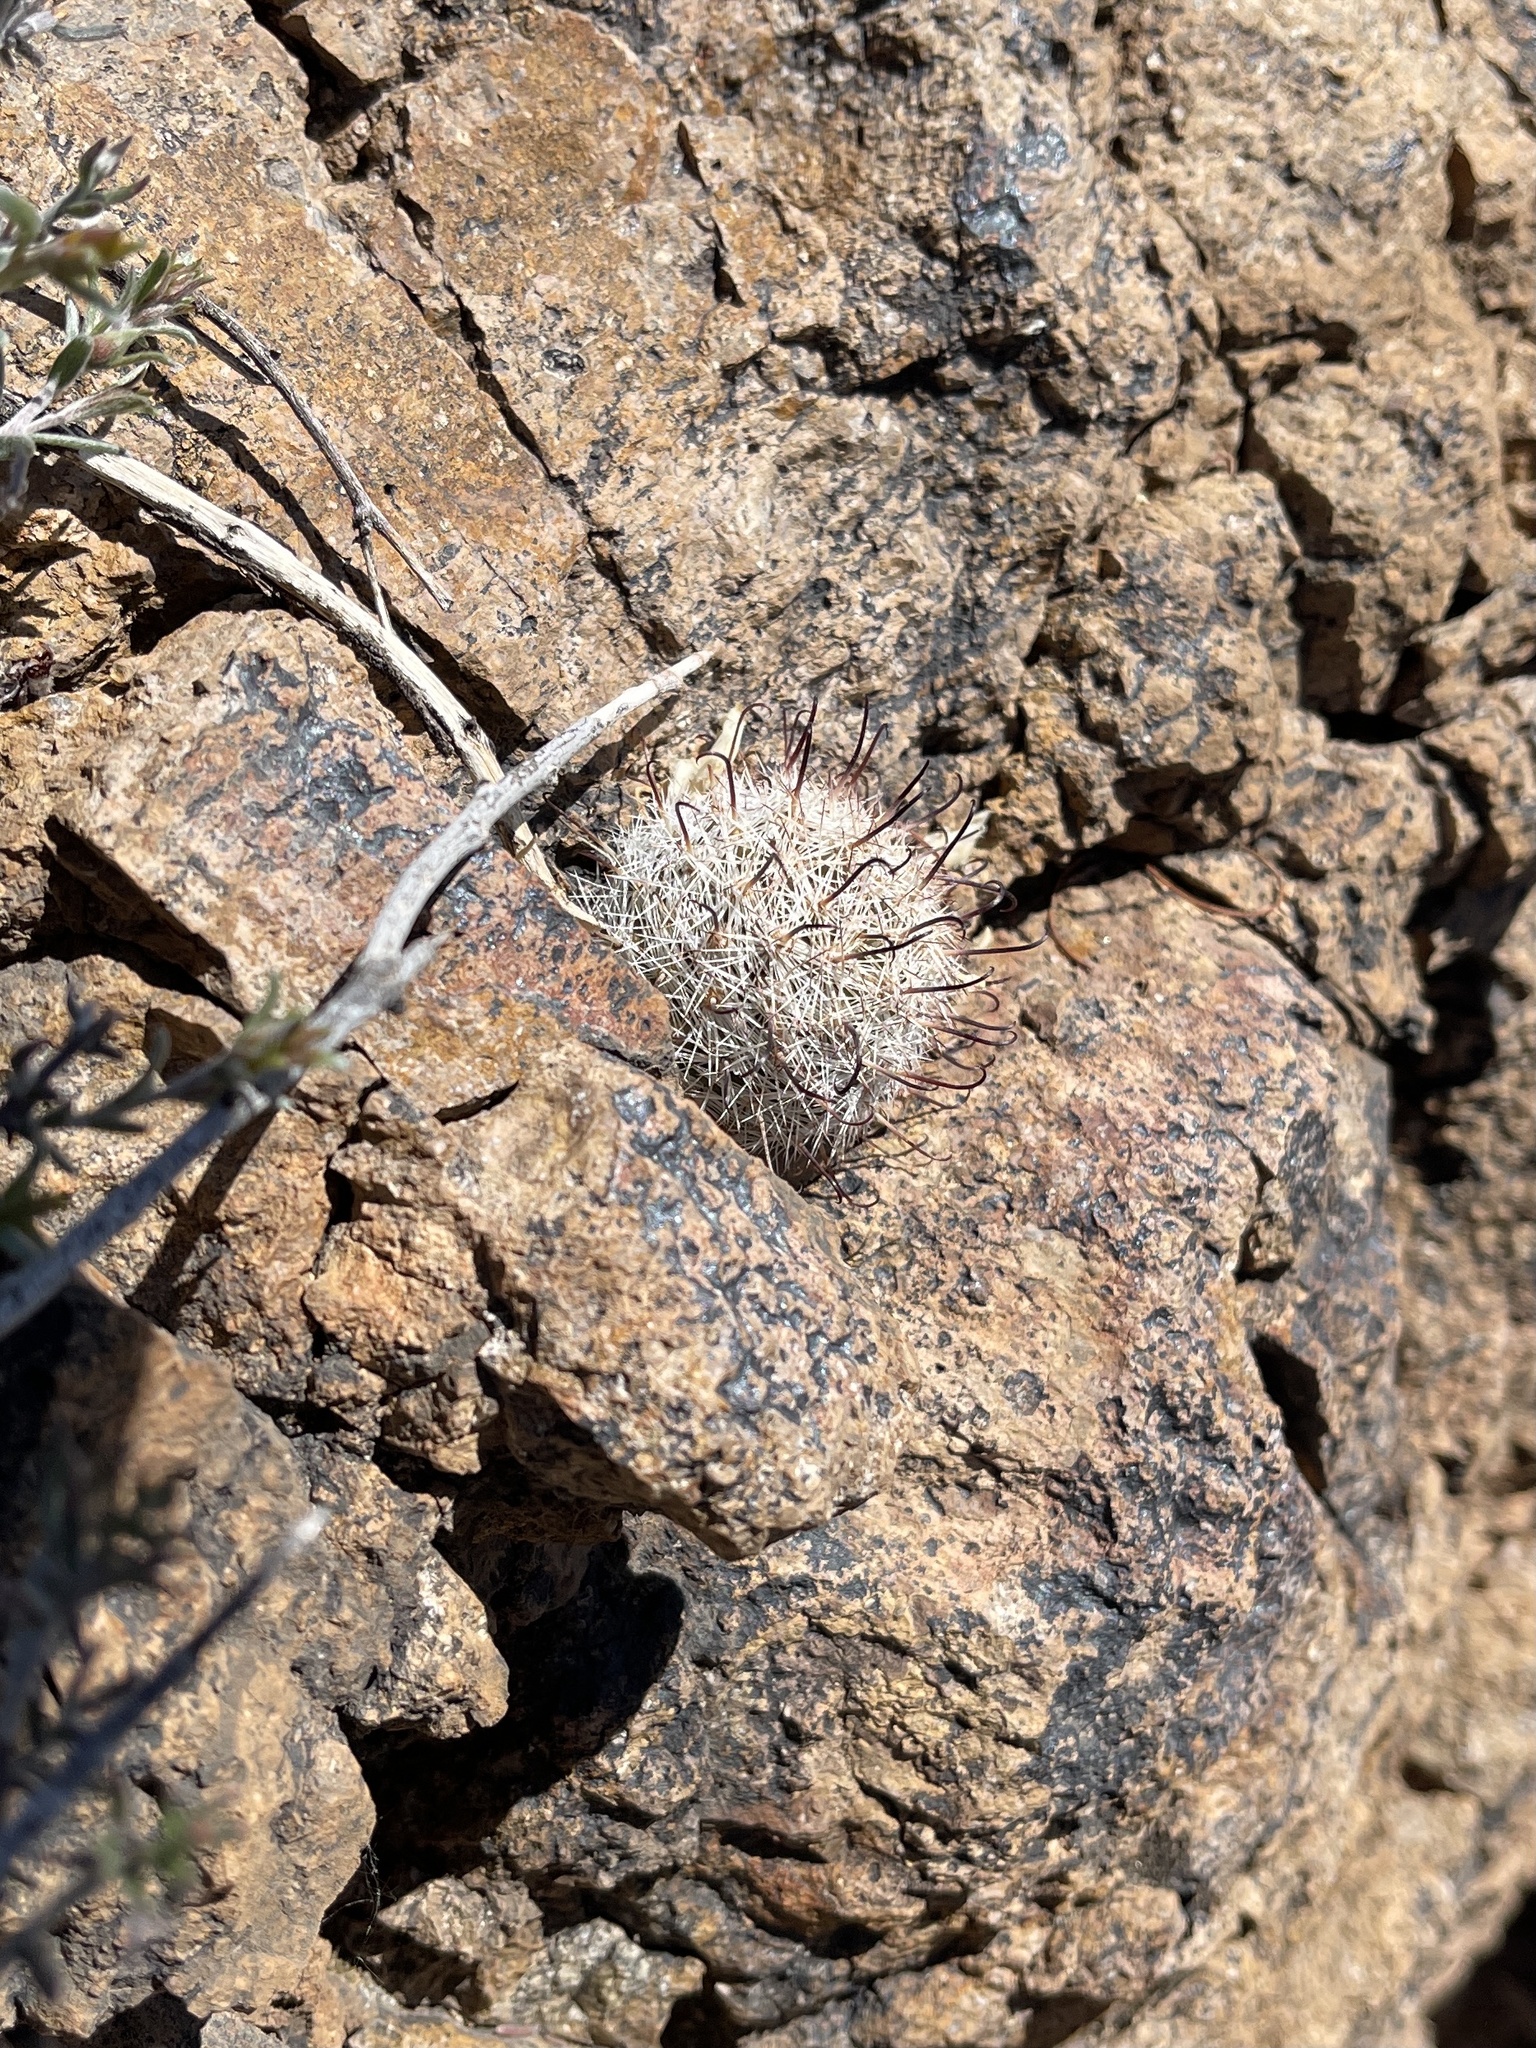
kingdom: Plantae
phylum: Tracheophyta
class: Magnoliopsida
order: Caryophyllales
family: Cactaceae
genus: Cochemiea
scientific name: Cochemiea grahamii
